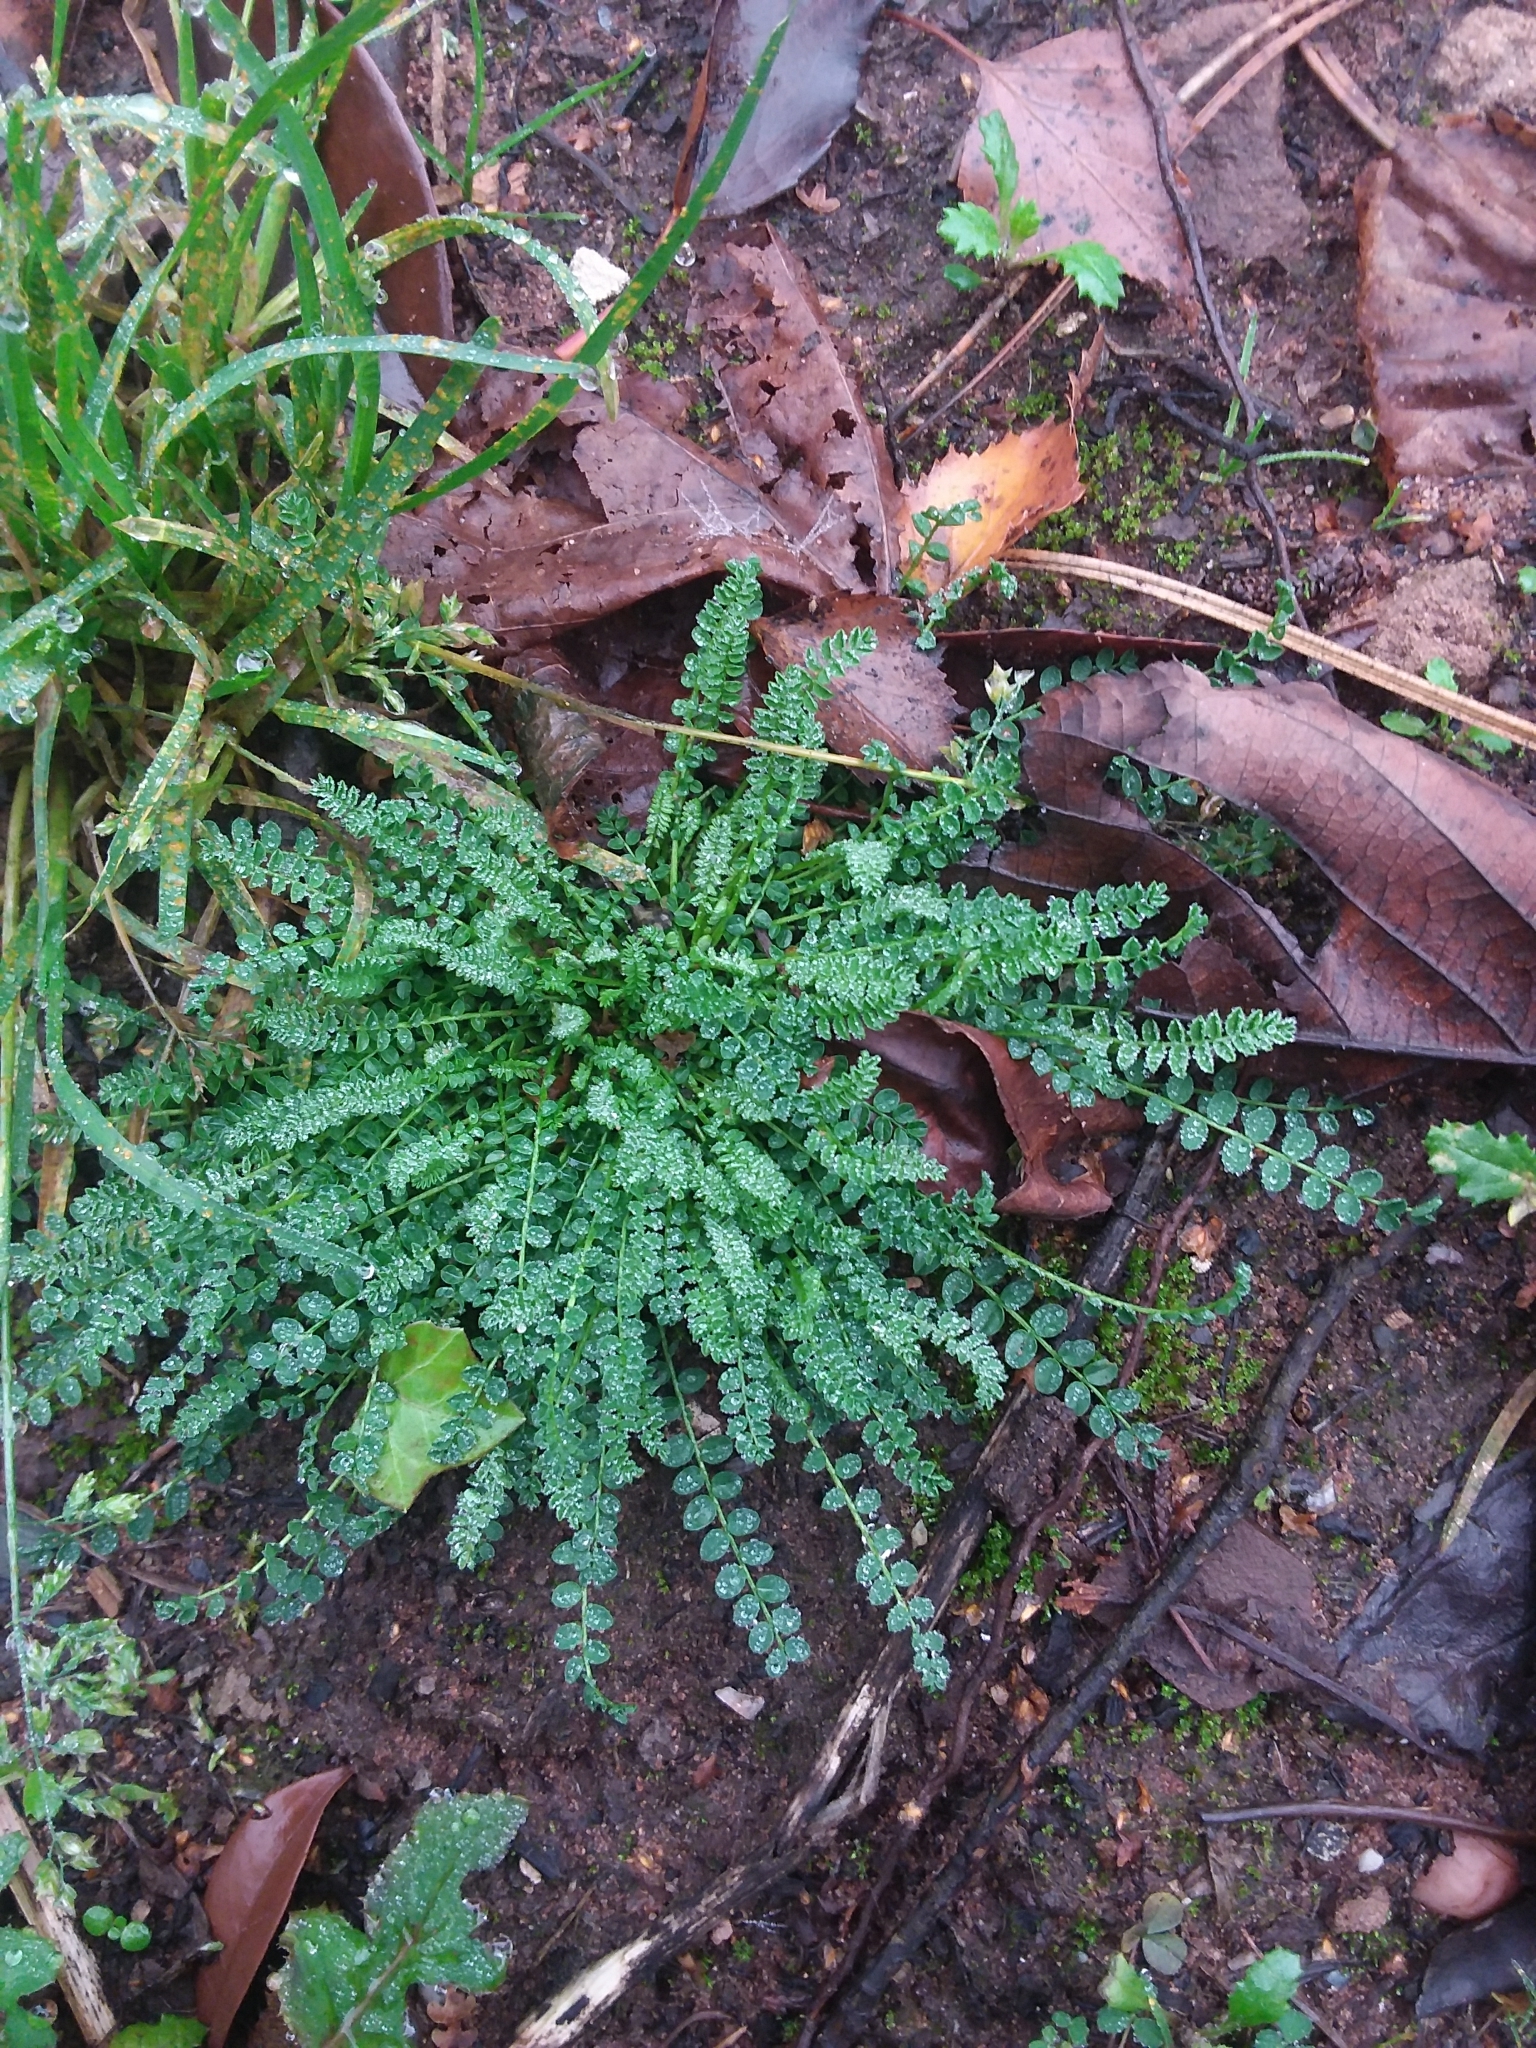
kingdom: Plantae
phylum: Tracheophyta
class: Magnoliopsida
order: Fabales
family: Fabaceae
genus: Ornithopus
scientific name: Ornithopus perpusillus
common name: Bird's-foot
